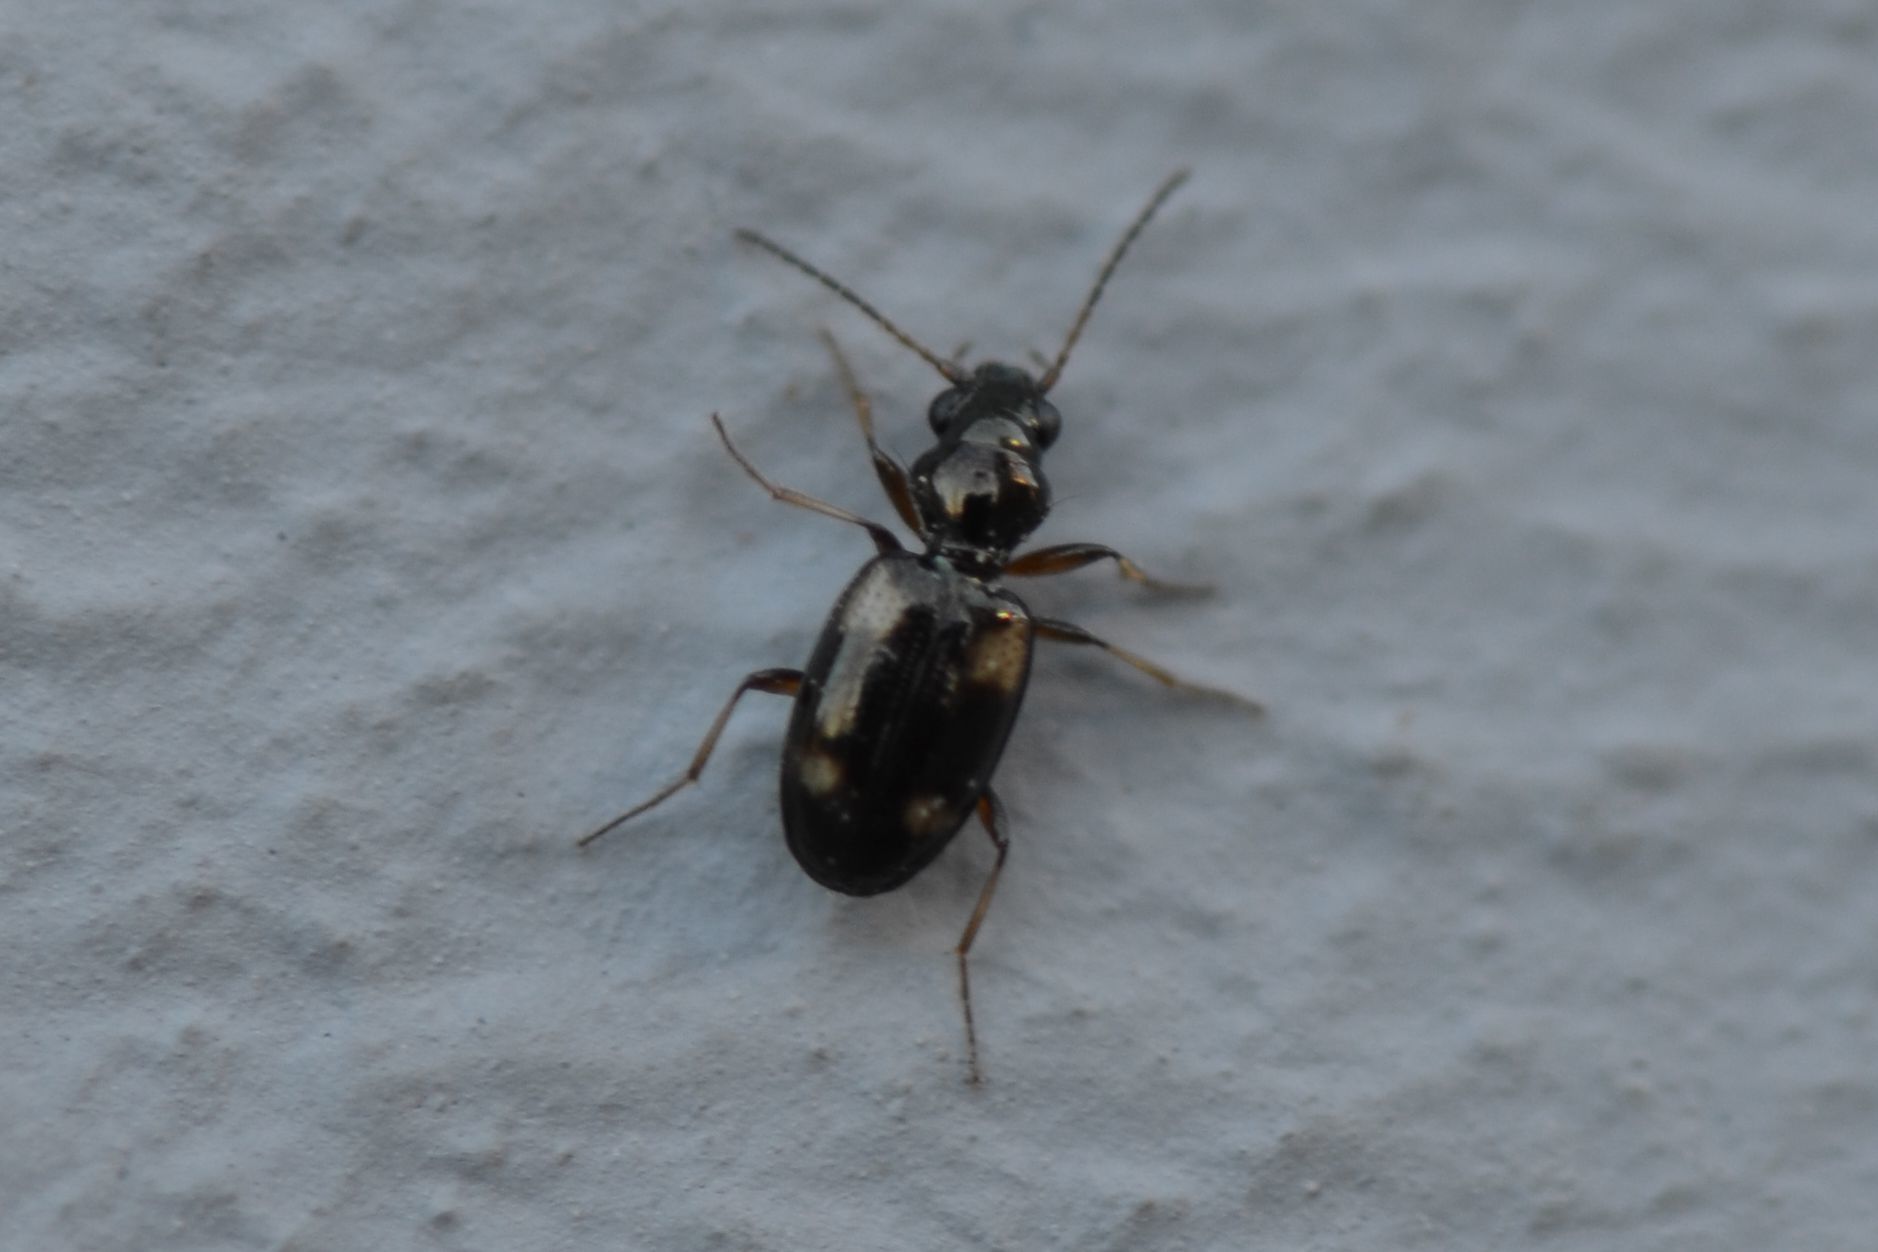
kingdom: Animalia
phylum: Arthropoda
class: Insecta
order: Coleoptera
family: Carabidae
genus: Bembidion
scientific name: Bembidion quadrimaculatum
